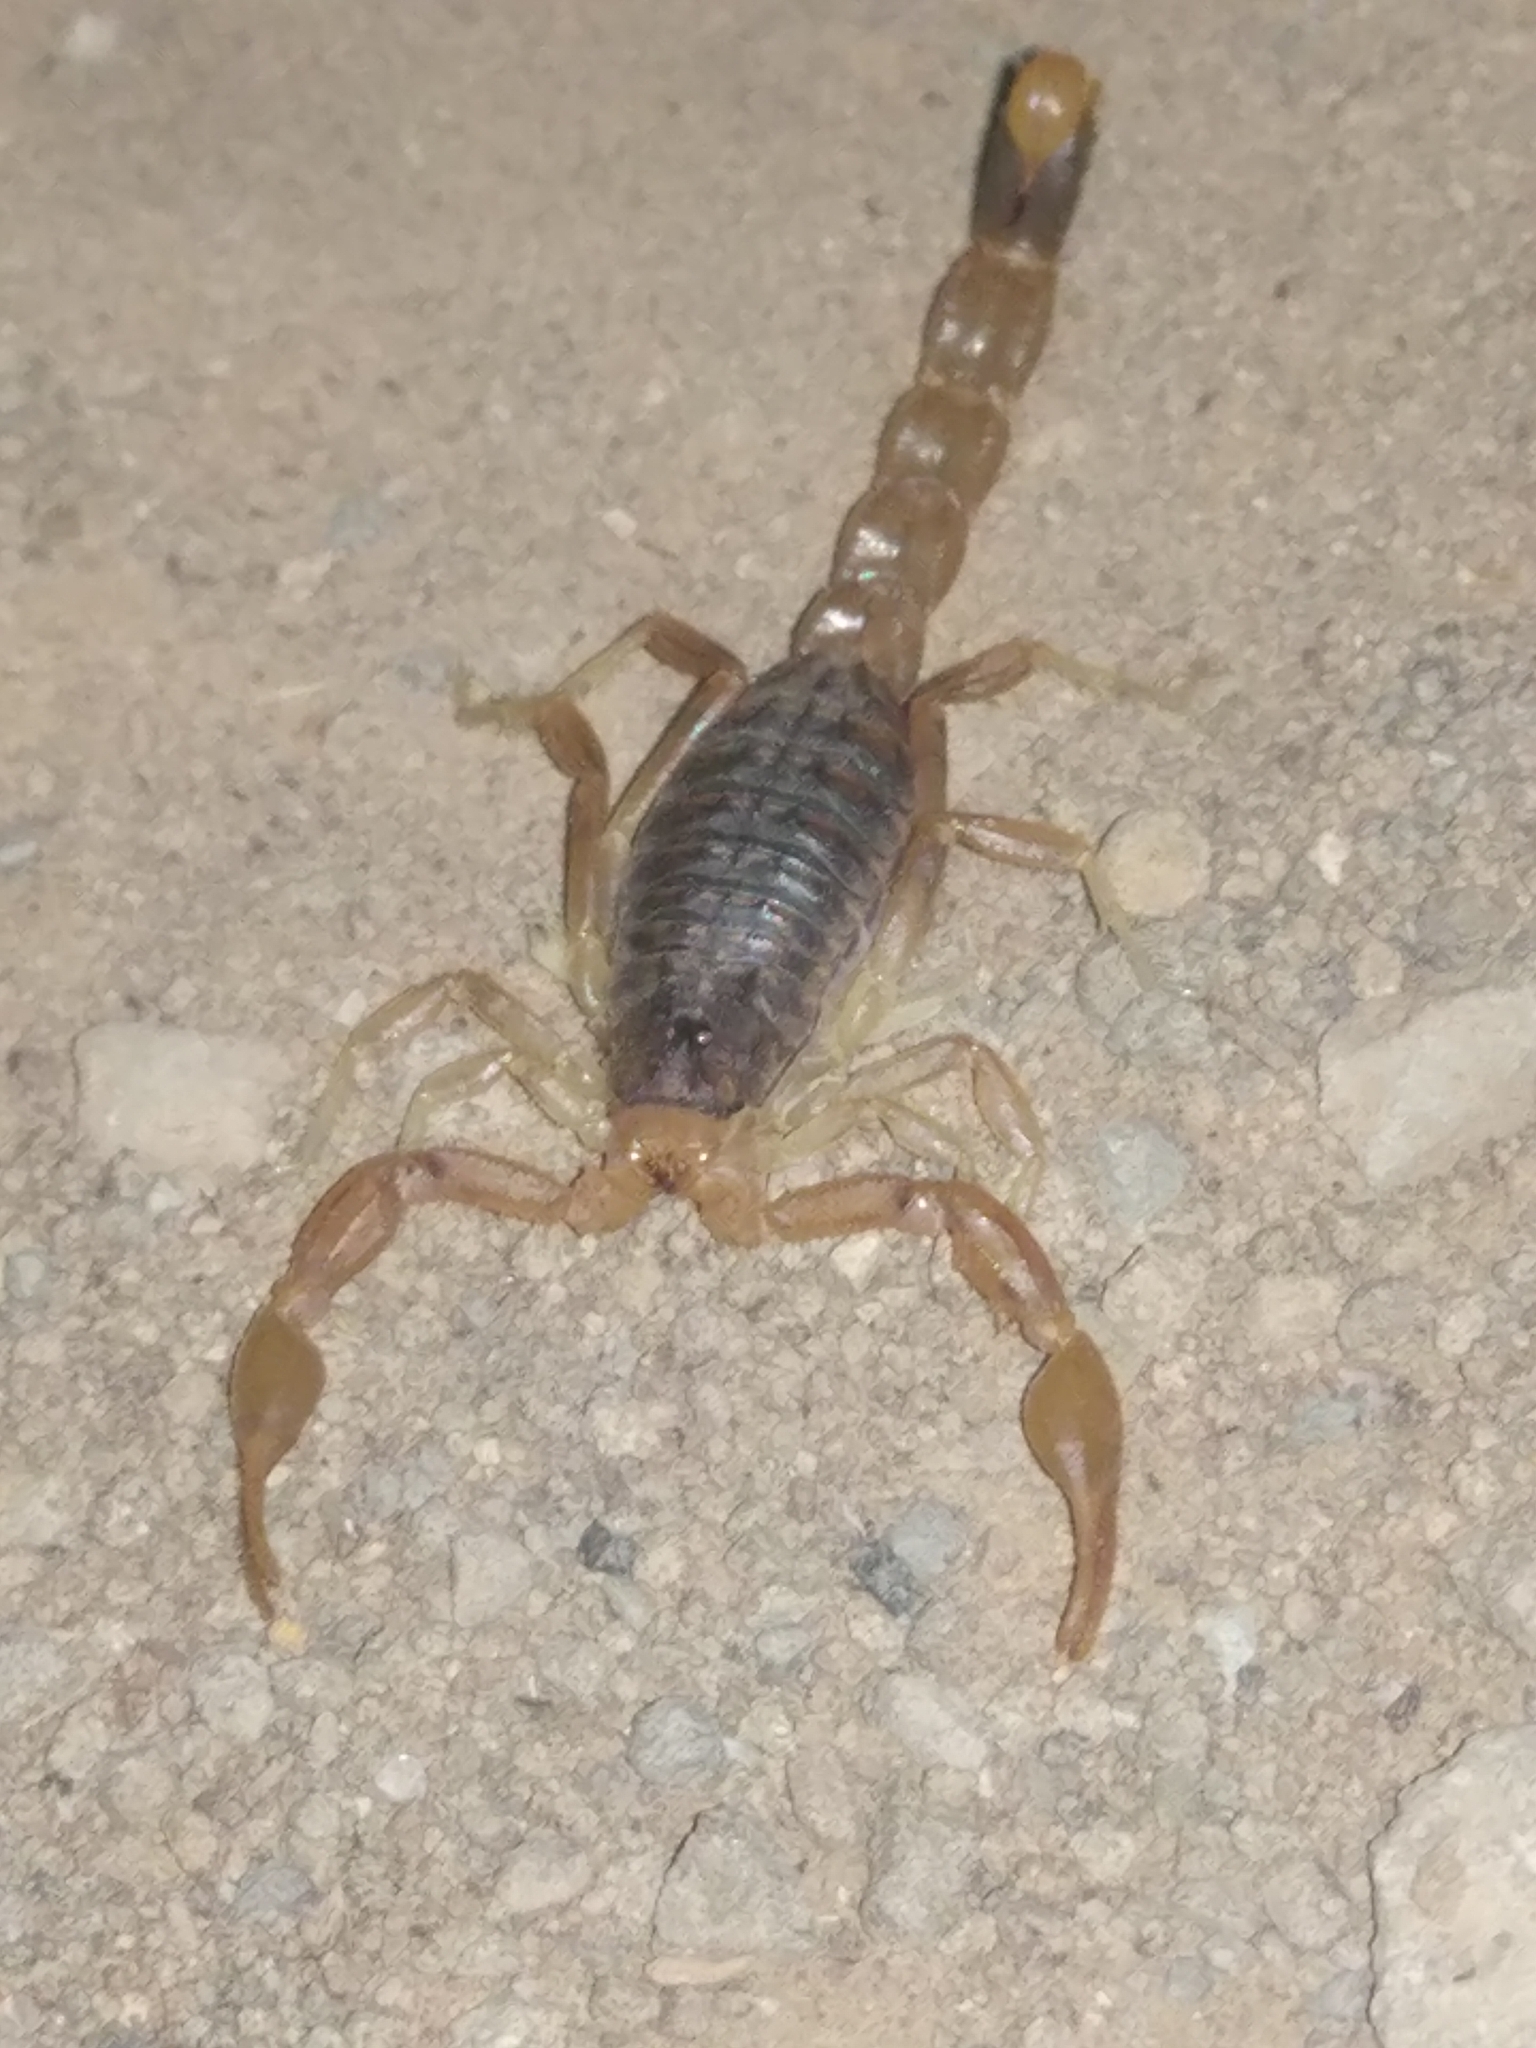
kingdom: Animalia
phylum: Arthropoda
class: Arachnida
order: Scorpiones
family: Buthidae
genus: Mesobuthus
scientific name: Mesobuthus eupeus
